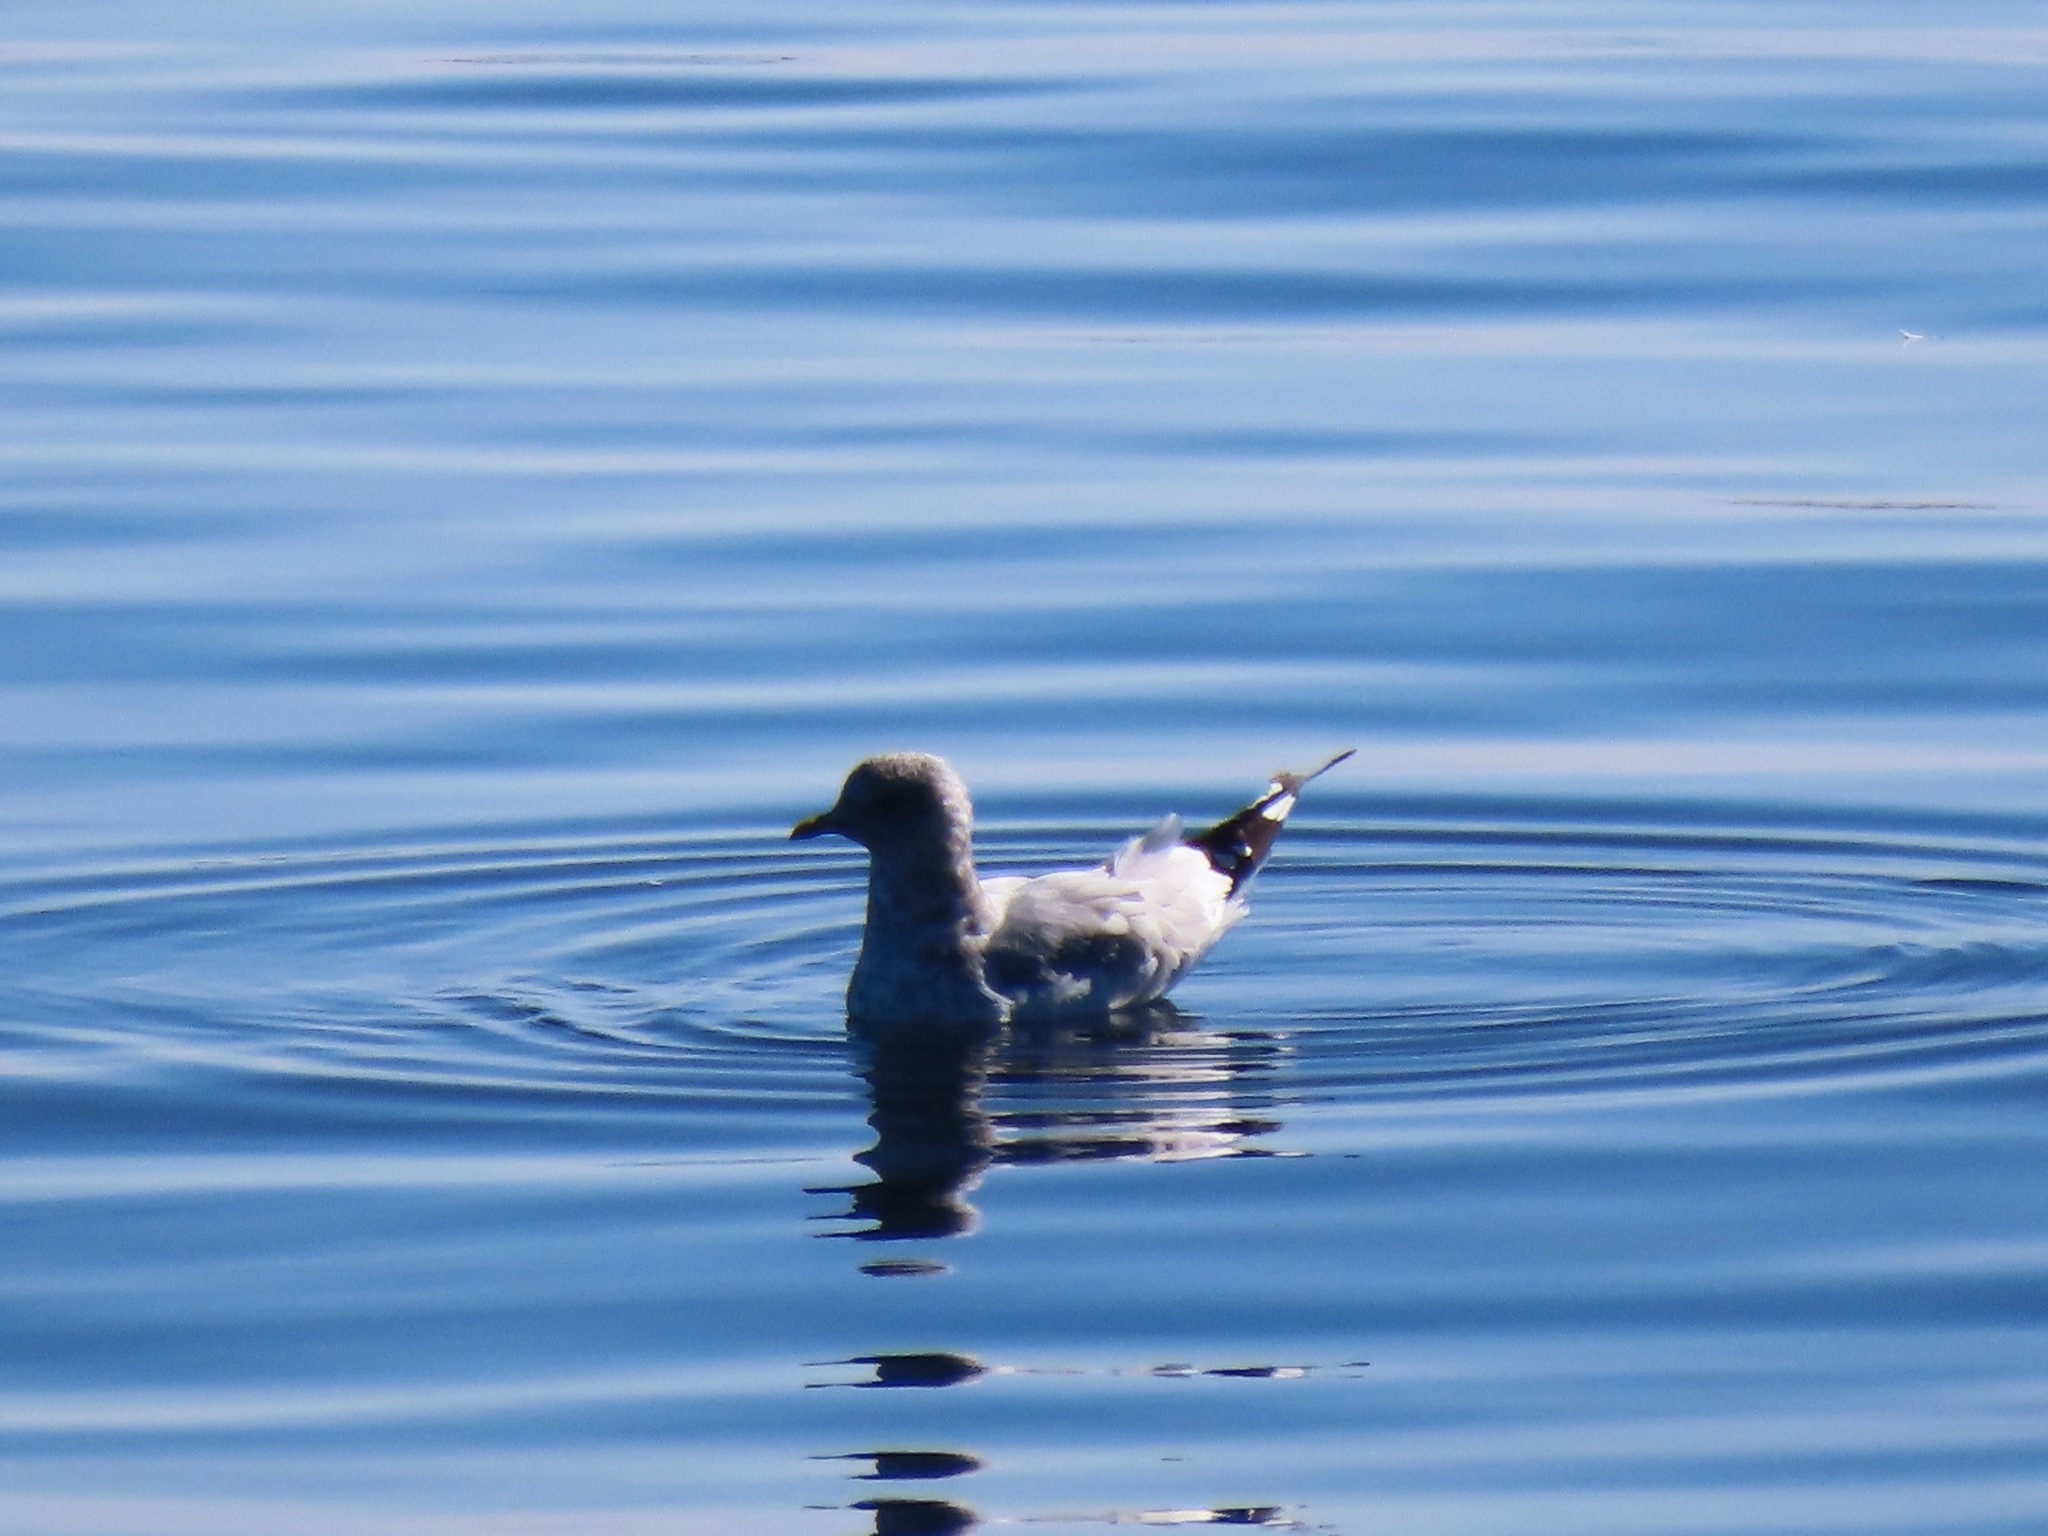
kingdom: Animalia
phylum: Chordata
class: Aves
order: Charadriiformes
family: Laridae
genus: Larus
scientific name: Larus brachyrhynchus
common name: Short-billed gull
